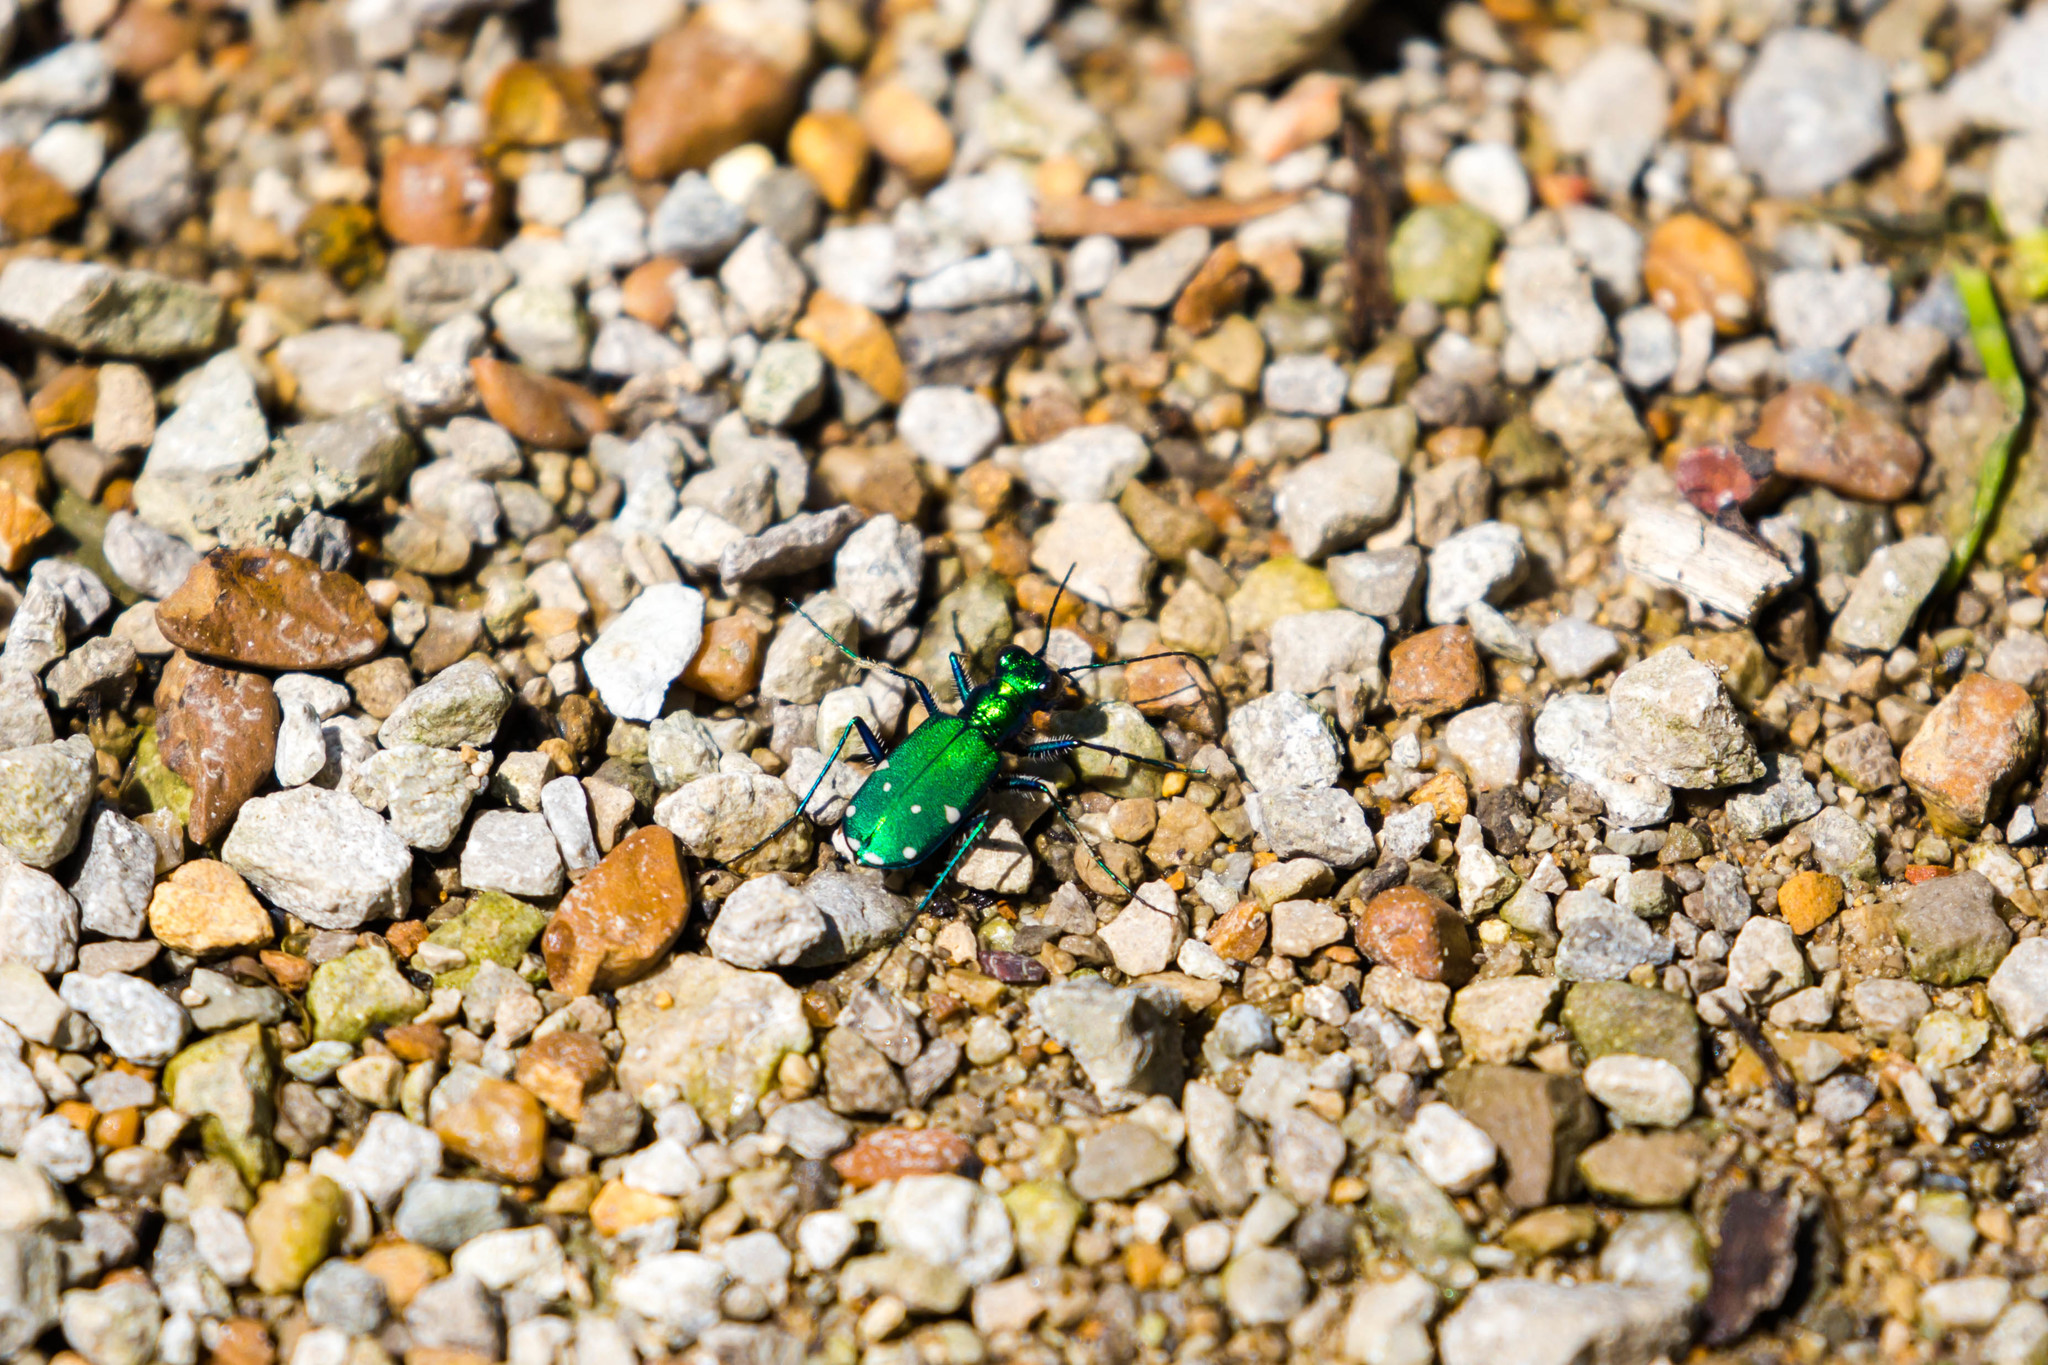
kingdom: Animalia
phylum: Arthropoda
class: Insecta
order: Coleoptera
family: Carabidae
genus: Cicindela
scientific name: Cicindela sexguttata
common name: Six-spotted tiger beetle
